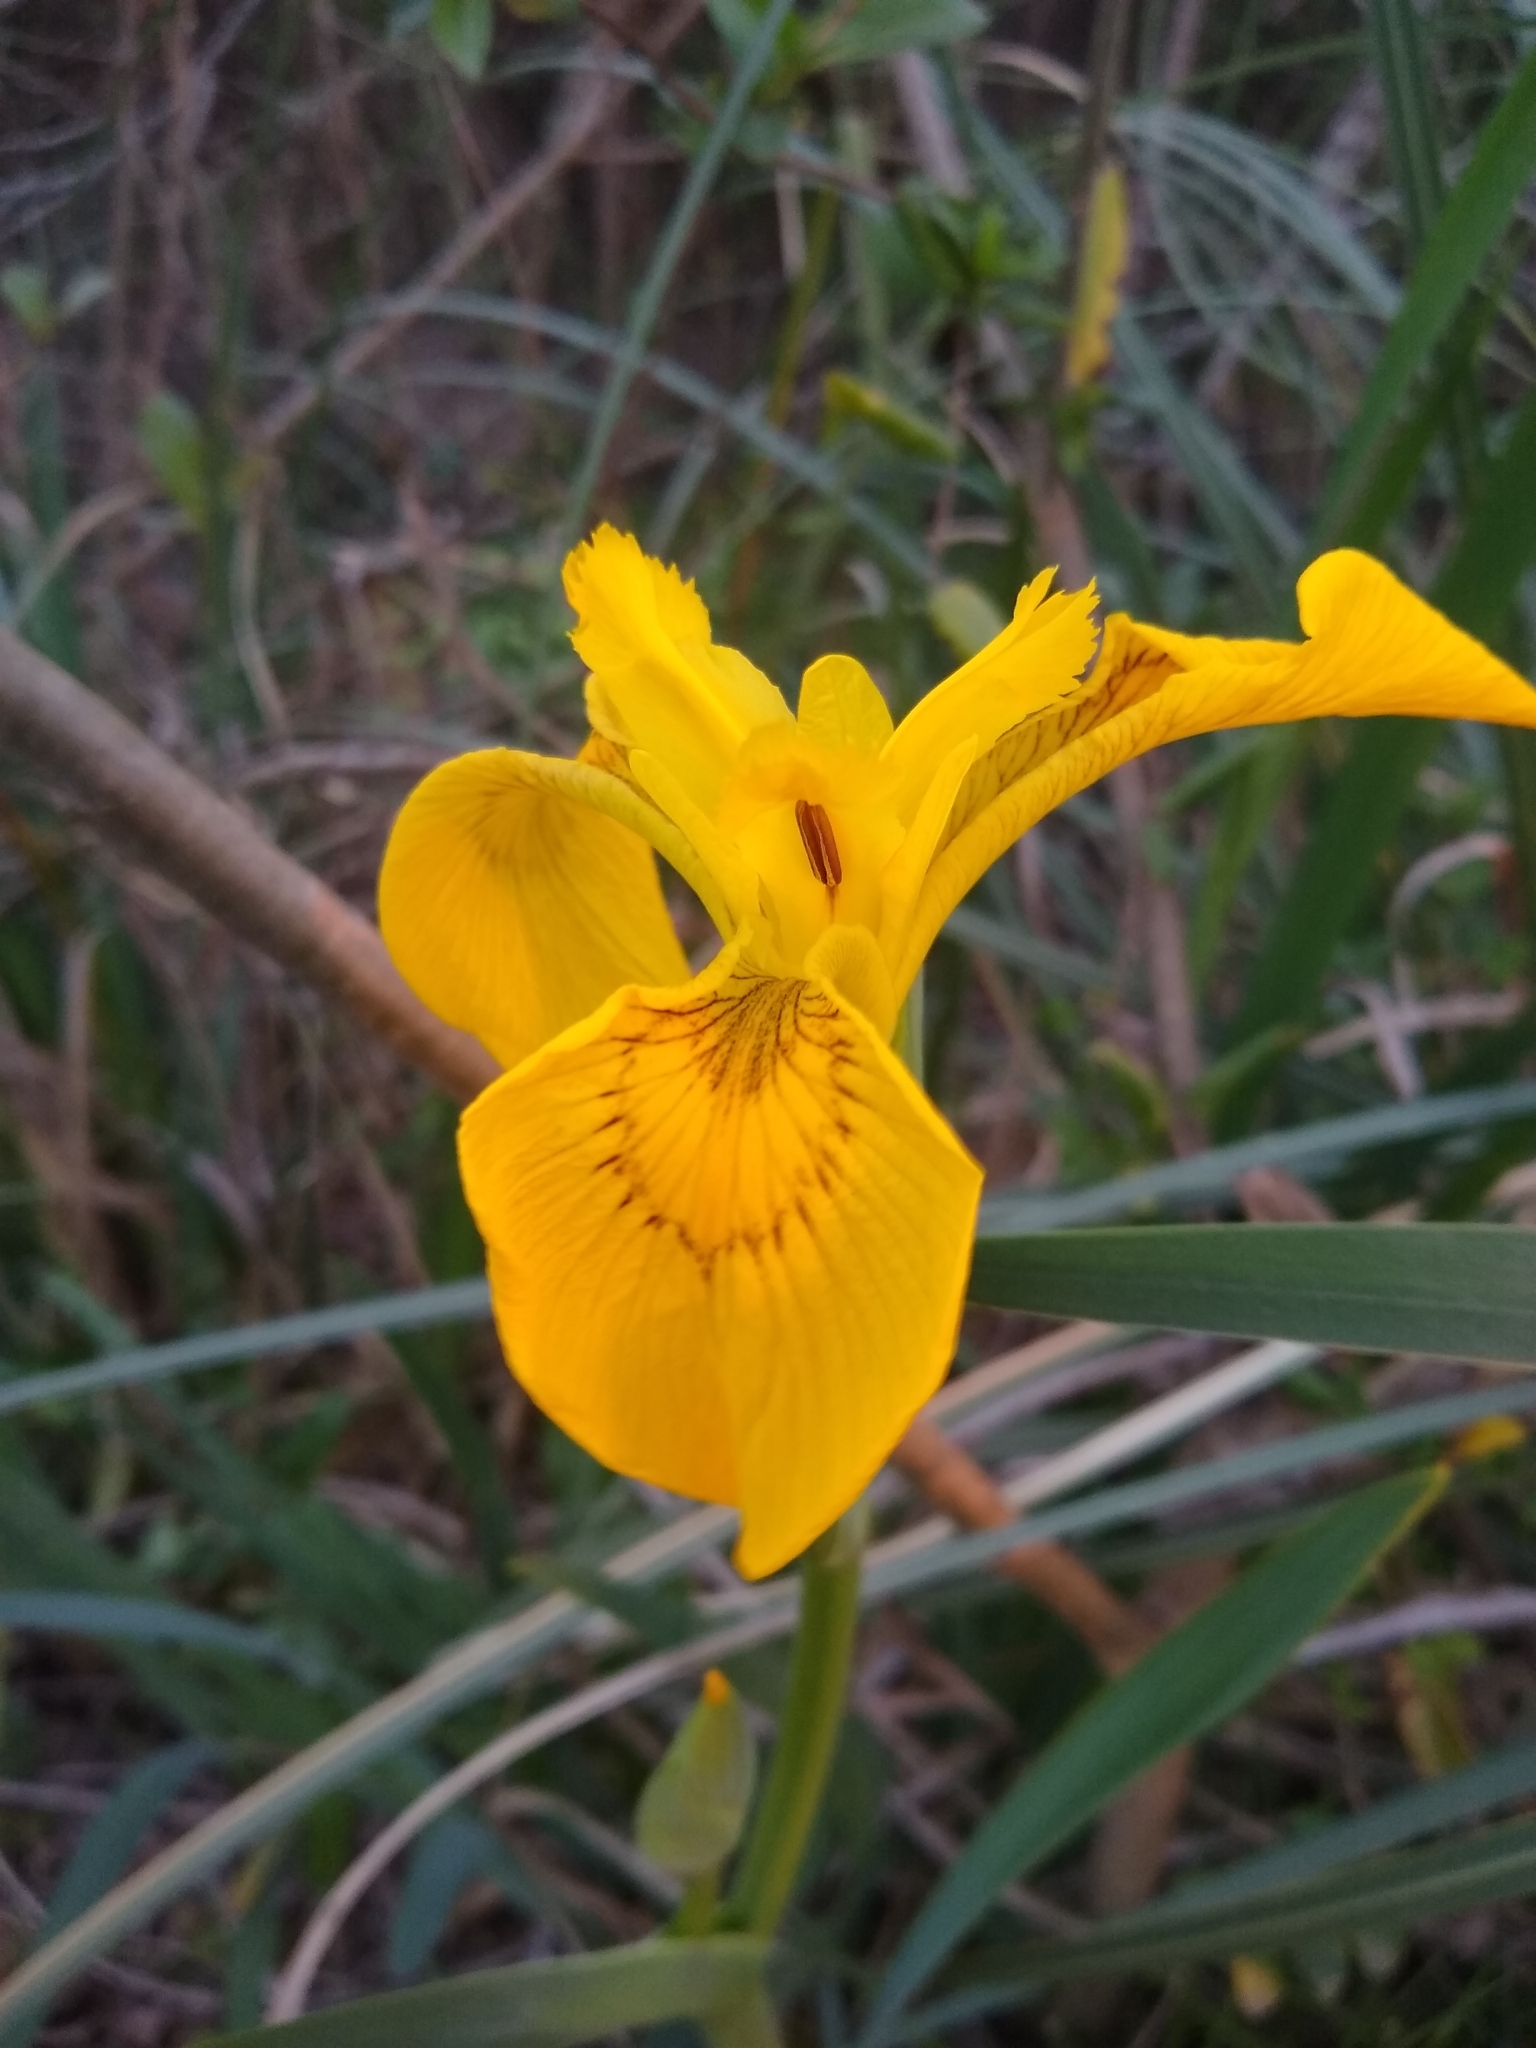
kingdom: Plantae
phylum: Tracheophyta
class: Liliopsida
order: Asparagales
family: Iridaceae
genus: Iris
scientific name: Iris pseudacorus
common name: Yellow flag
